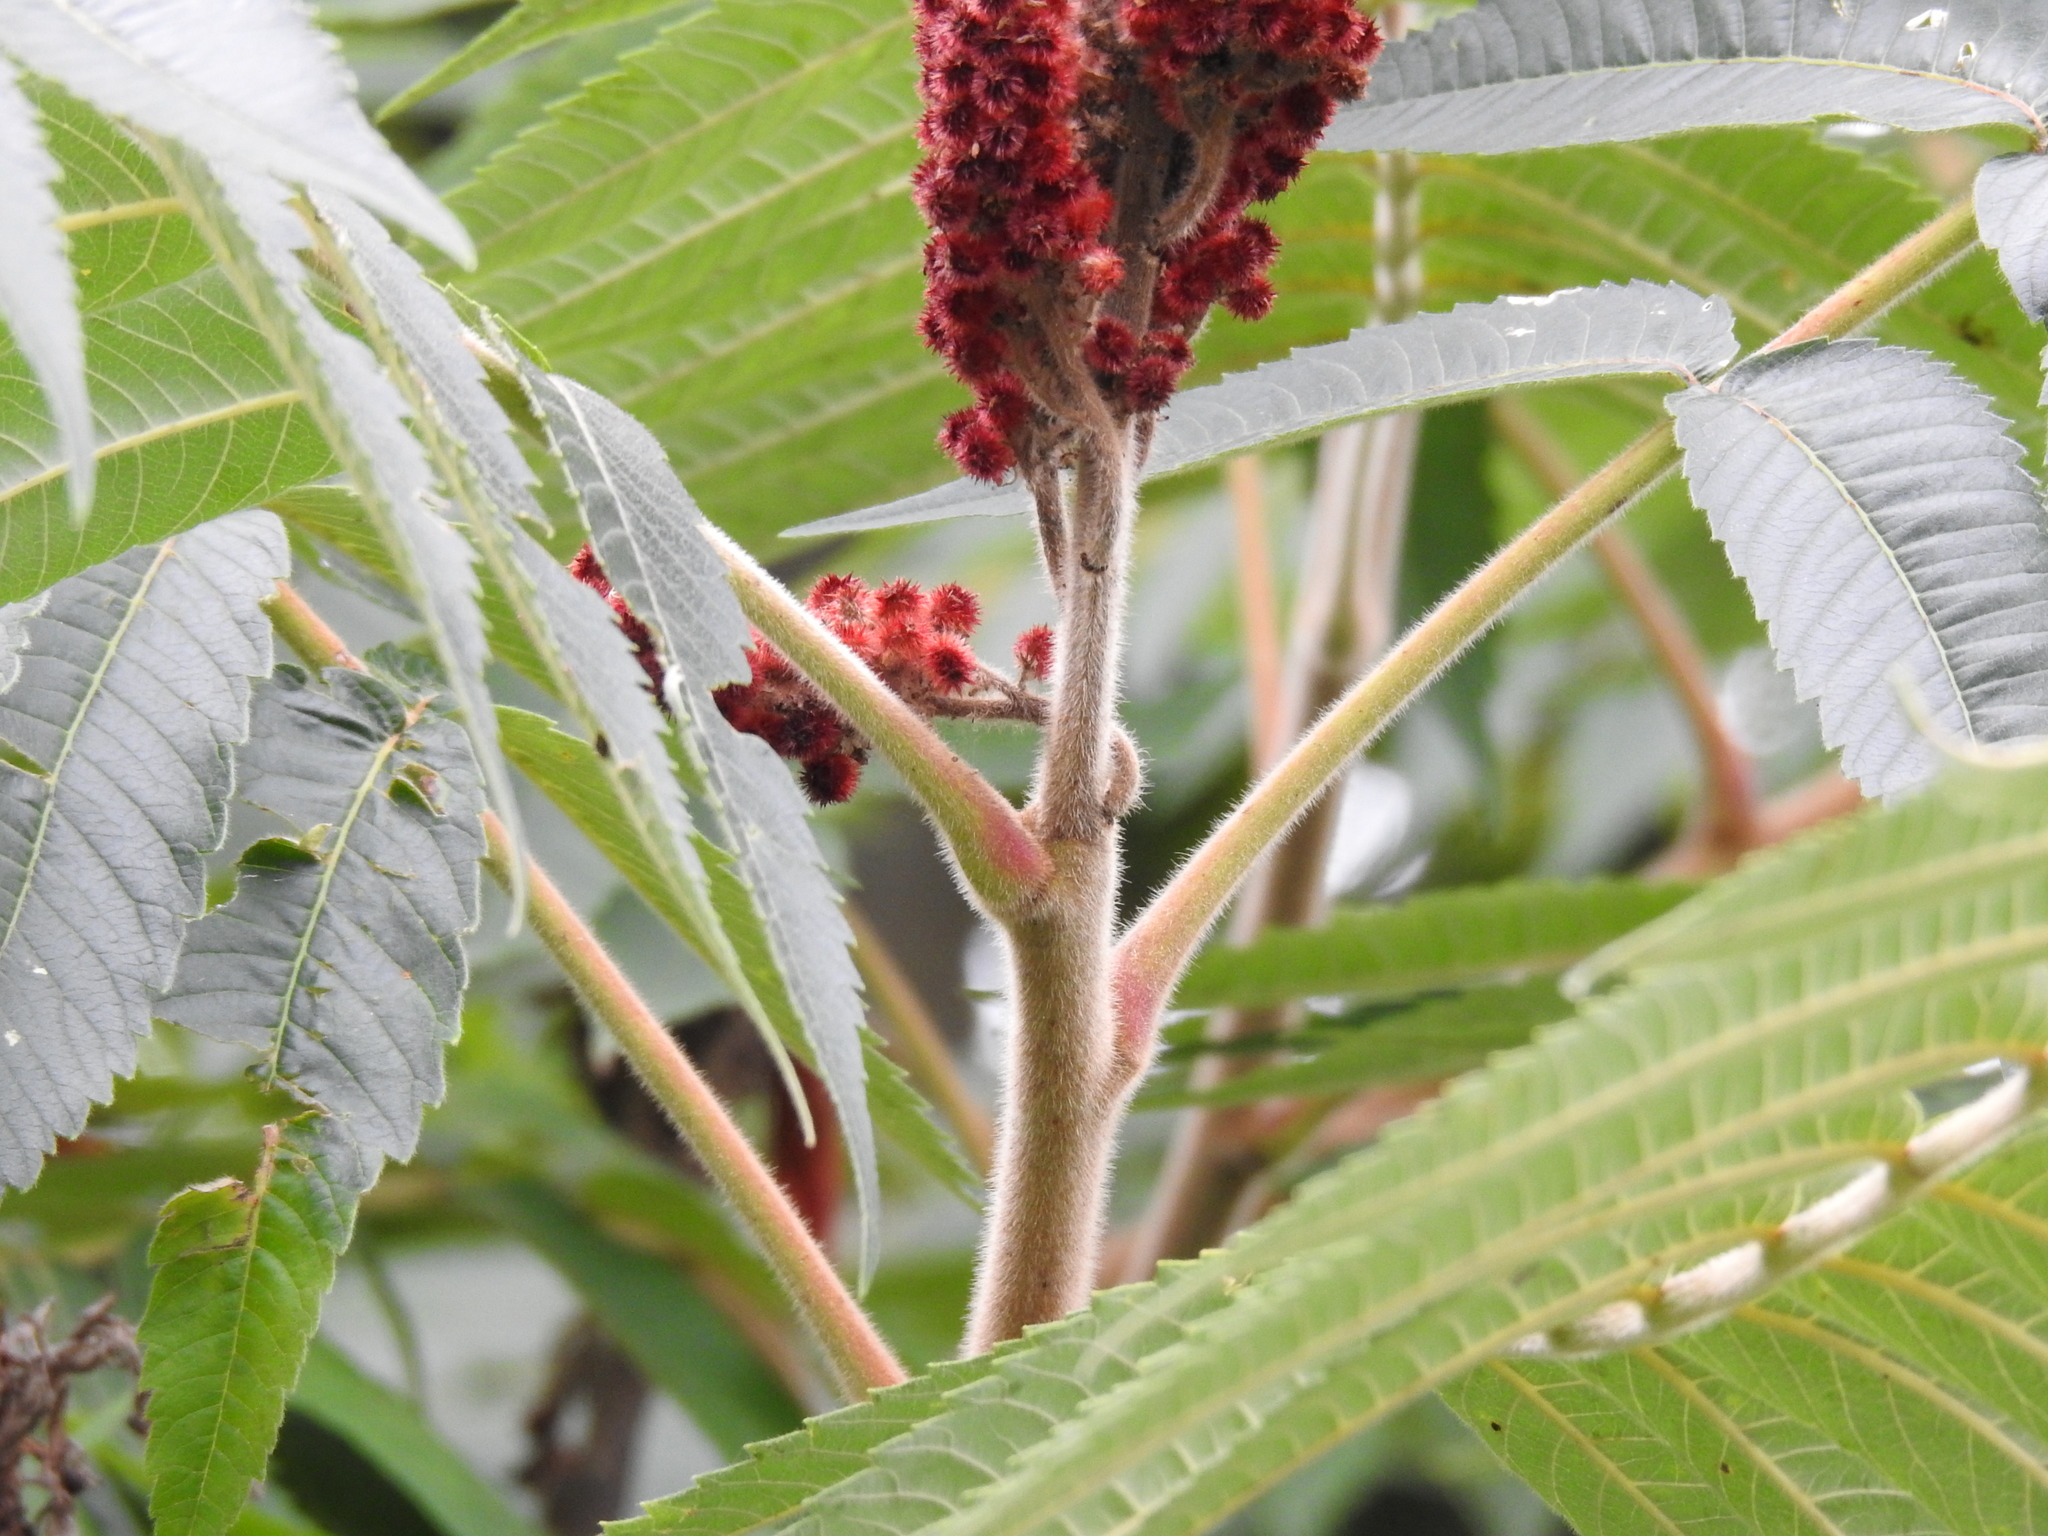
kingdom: Plantae
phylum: Tracheophyta
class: Magnoliopsida
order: Sapindales
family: Anacardiaceae
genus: Rhus
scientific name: Rhus typhina
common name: Staghorn sumac
